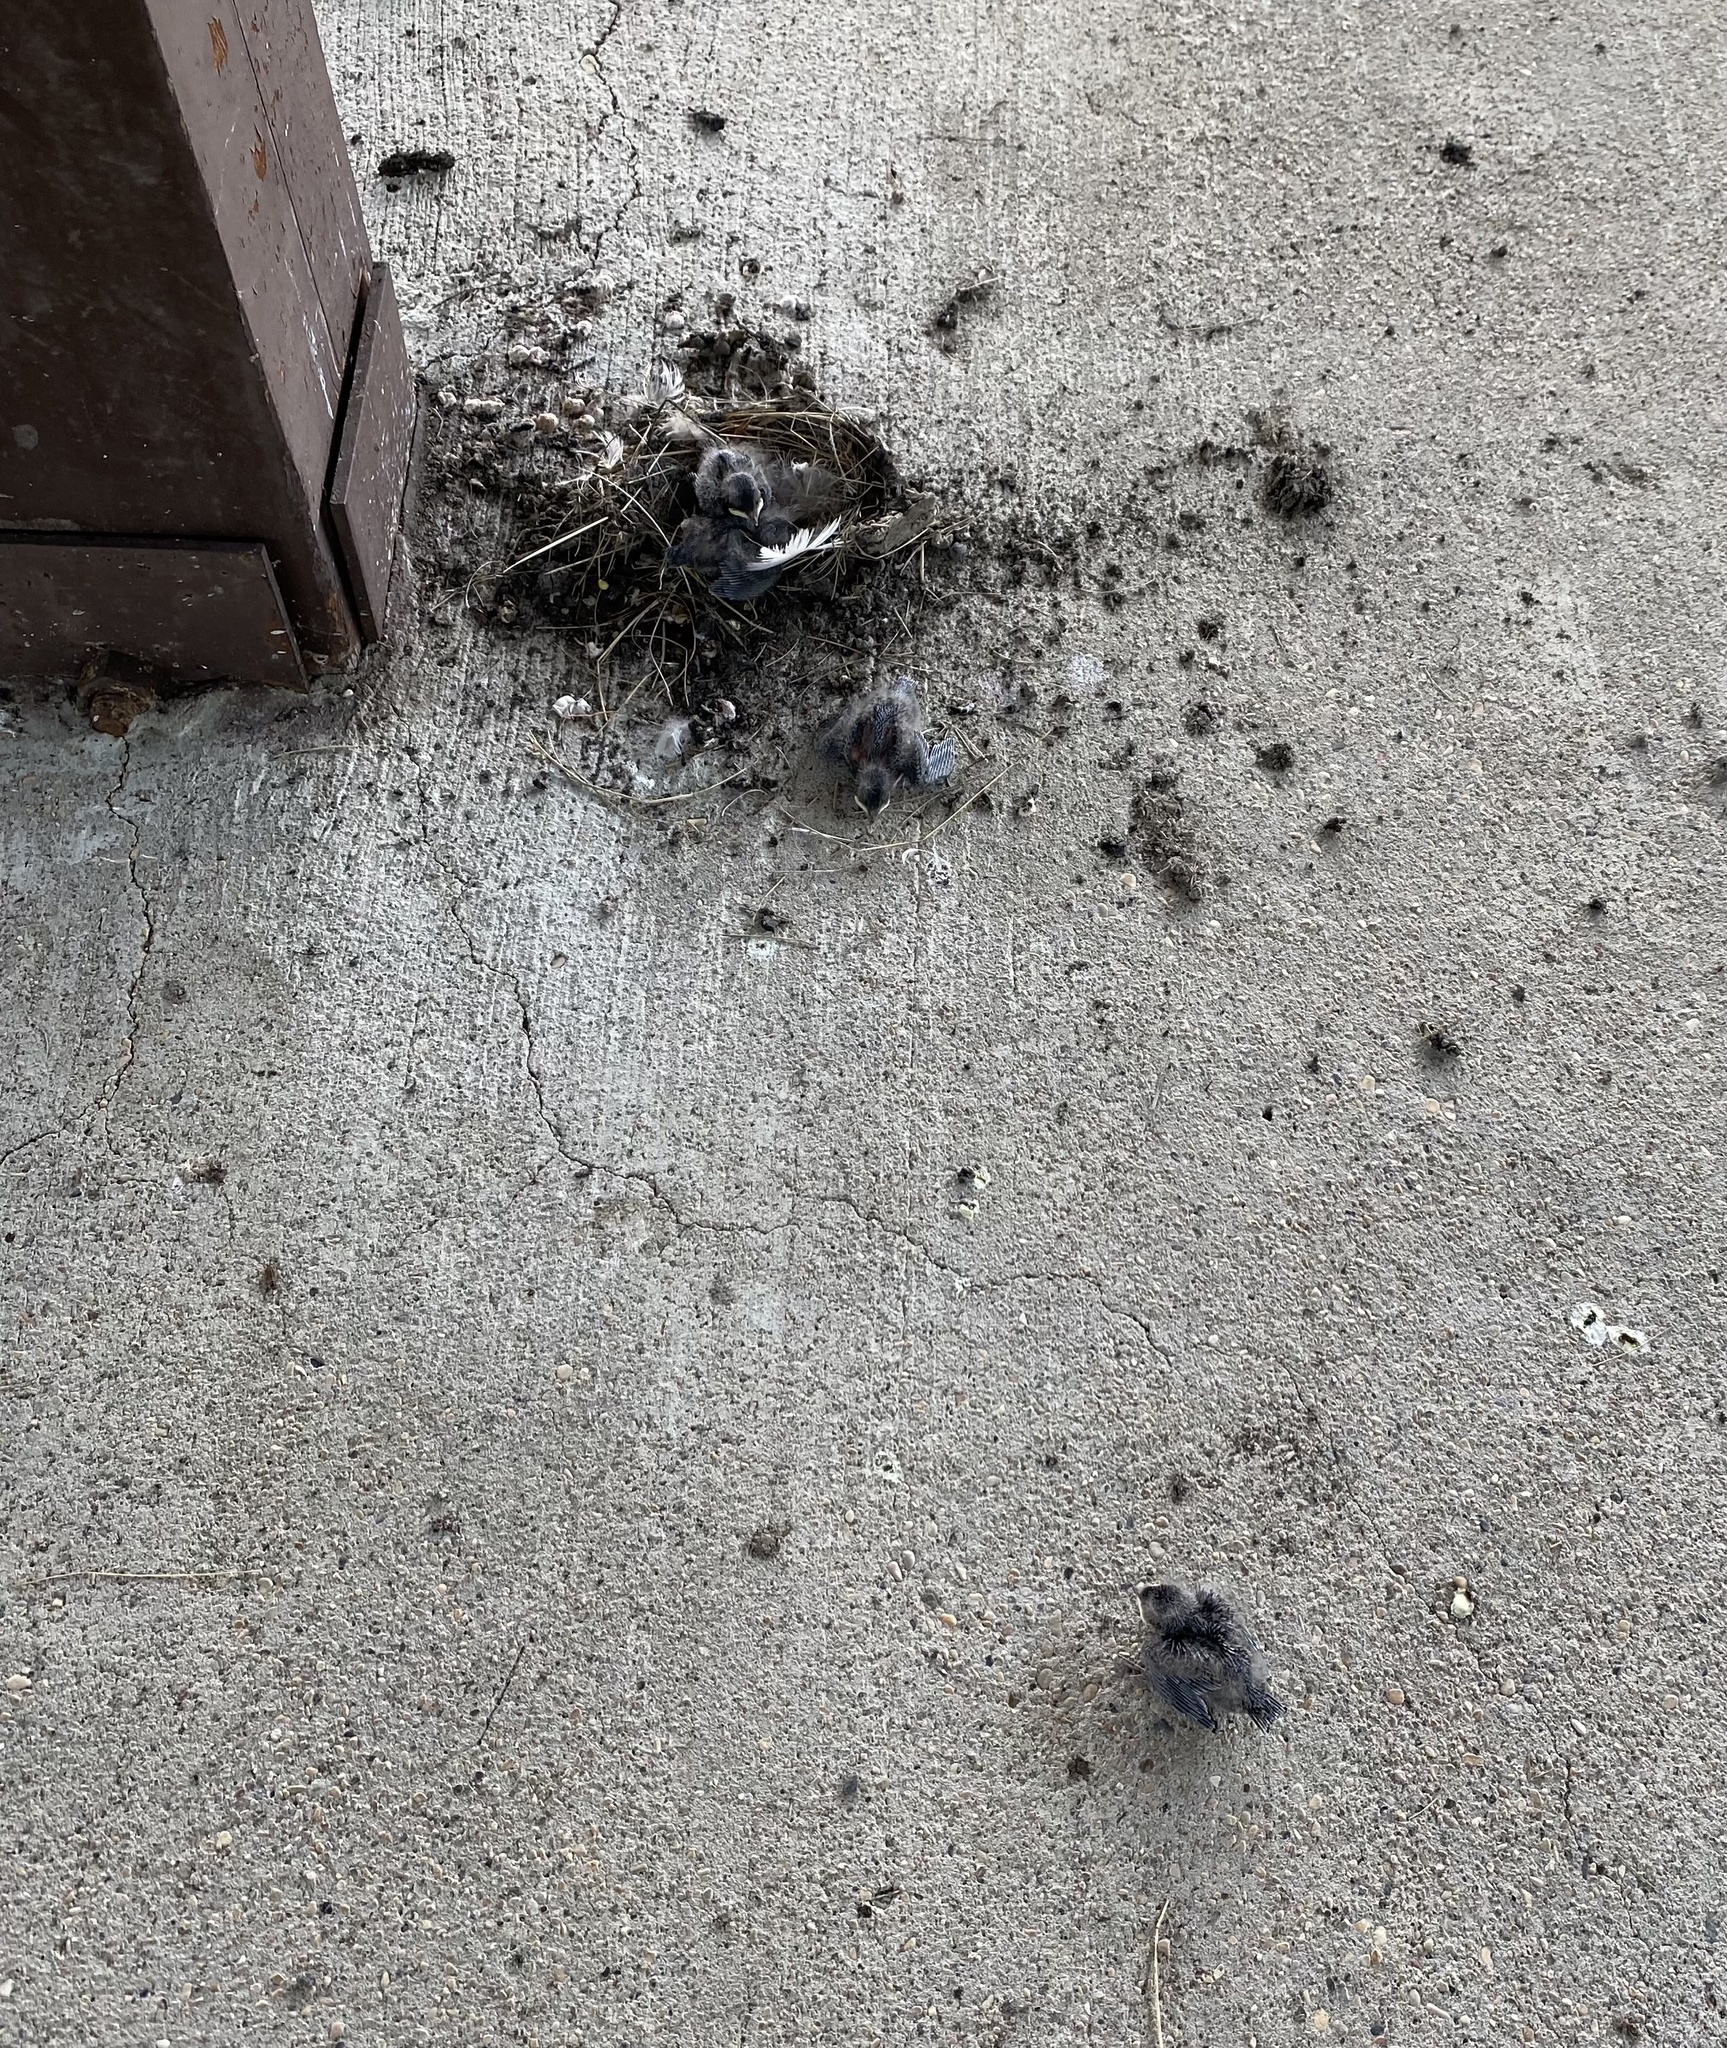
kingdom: Animalia
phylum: Chordata
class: Aves
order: Passeriformes
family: Hirundinidae
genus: Hirundo
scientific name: Hirundo rustica
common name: Barn swallow
